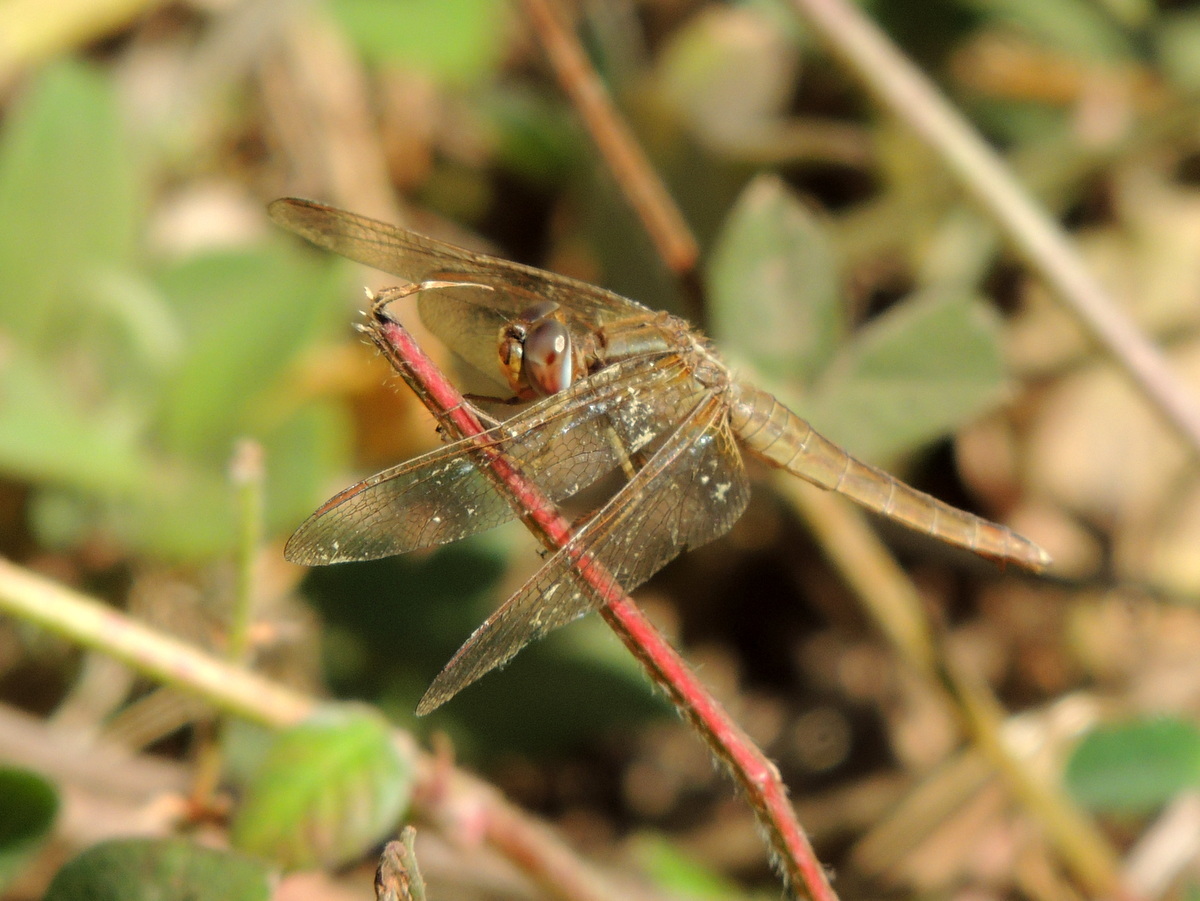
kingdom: Animalia
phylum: Arthropoda
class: Insecta
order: Odonata
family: Libellulidae
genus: Crocothemis
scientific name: Crocothemis erythraea
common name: Scarlet dragonfly
